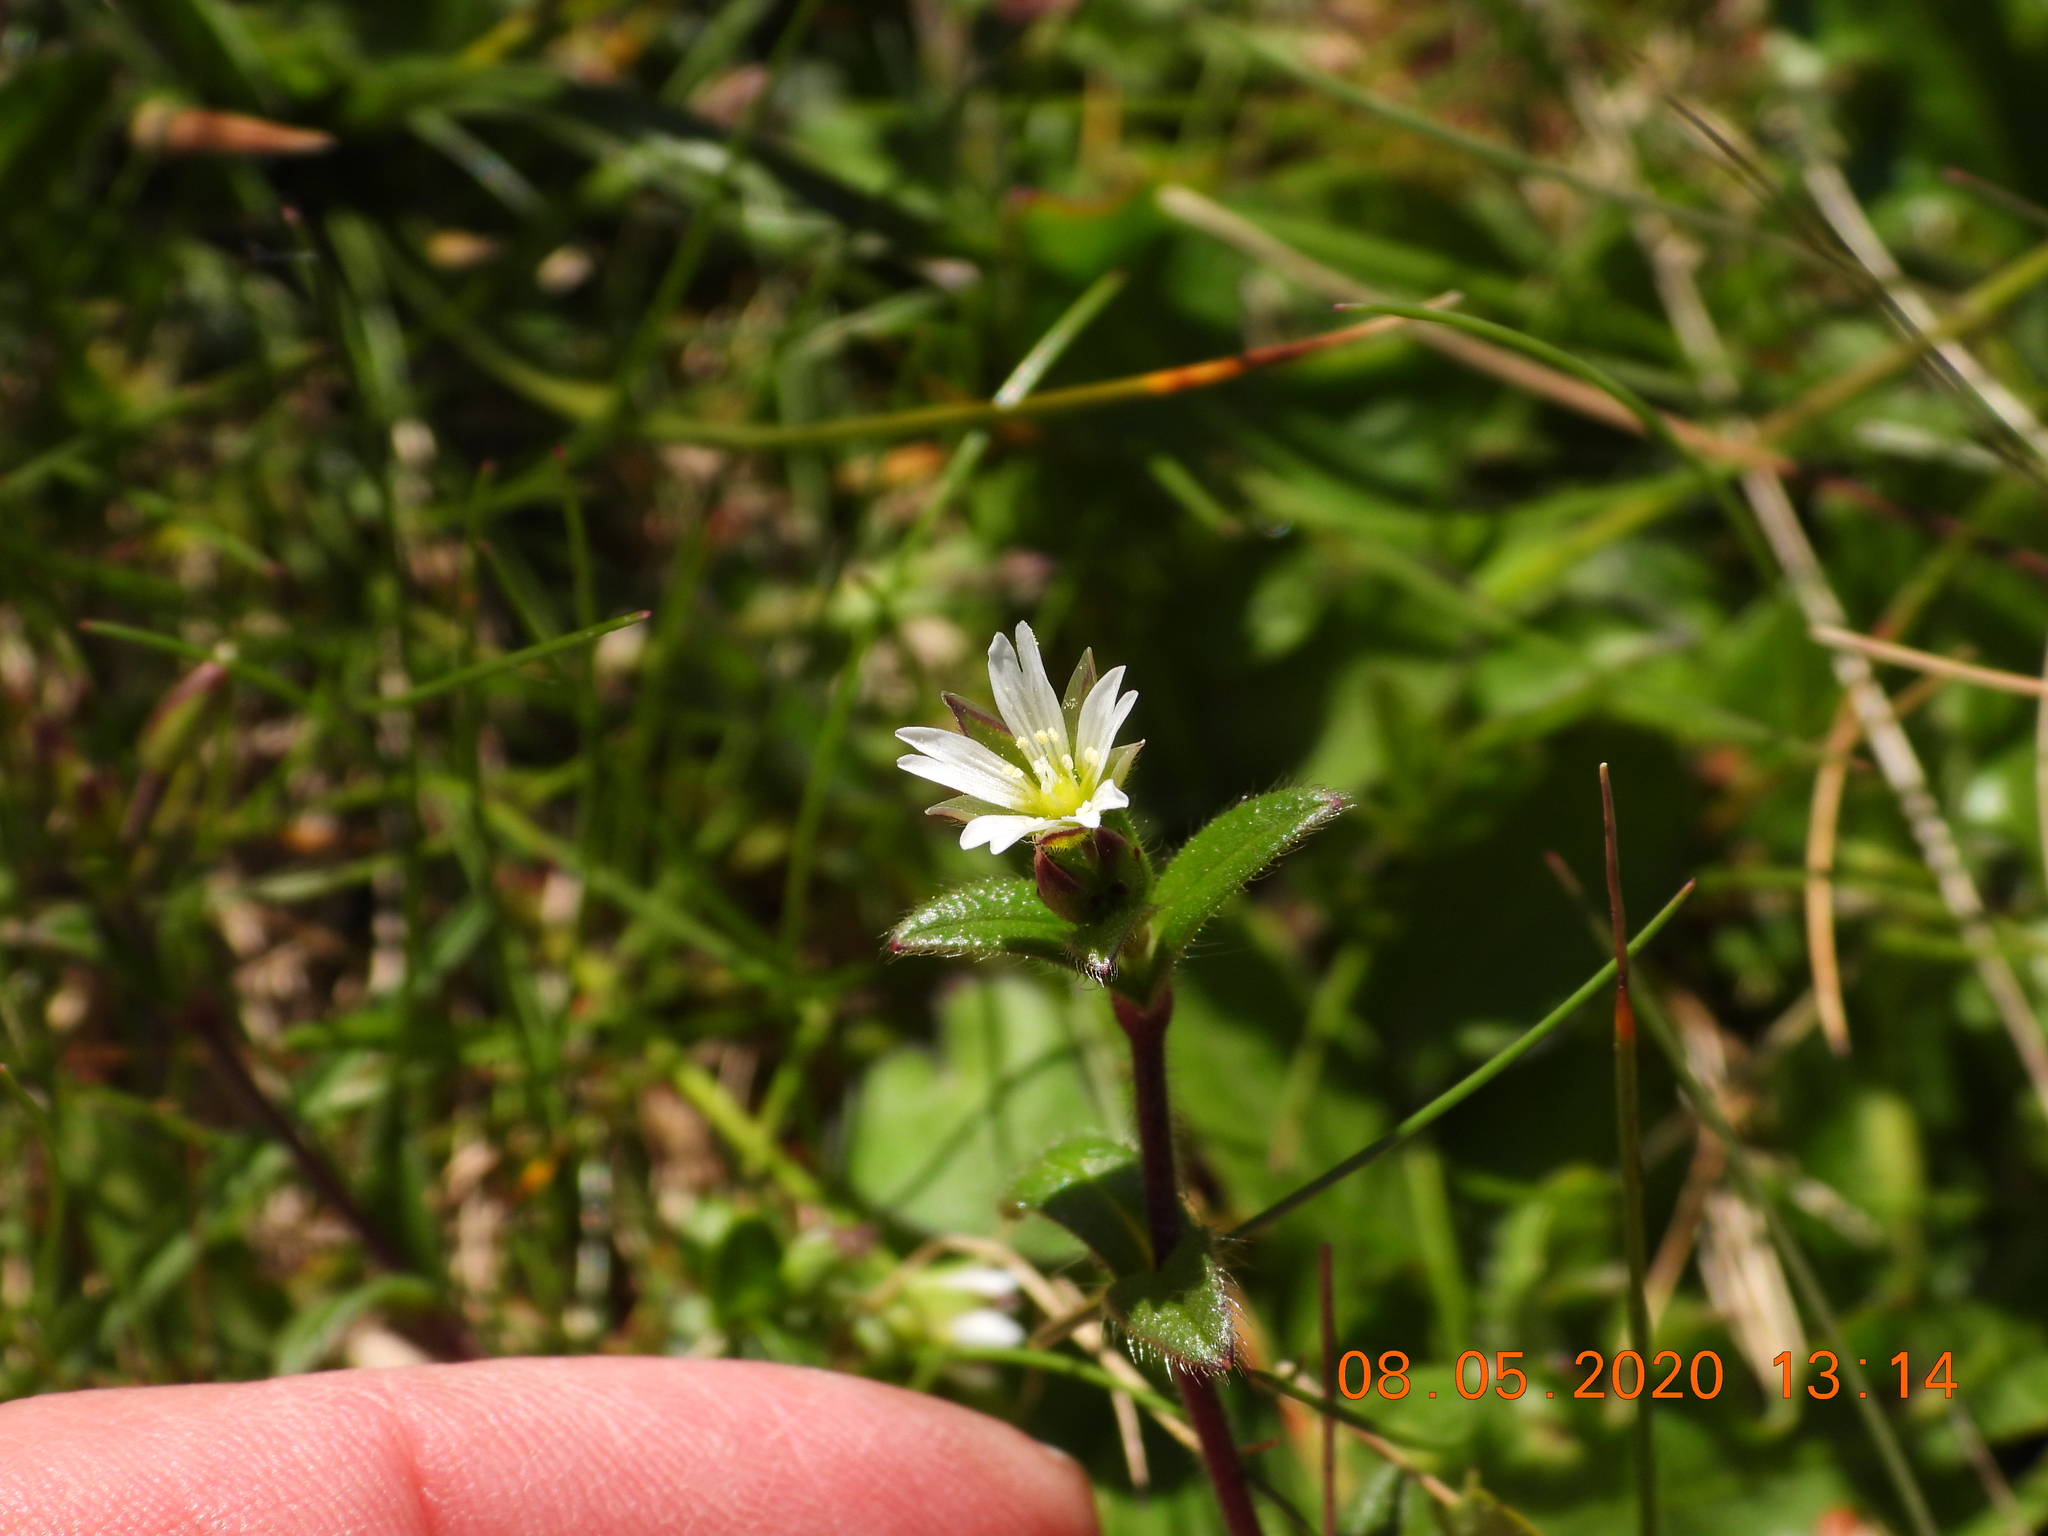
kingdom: Plantae
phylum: Tracheophyta
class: Magnoliopsida
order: Caryophyllales
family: Caryophyllaceae
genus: Cerastium
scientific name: Cerastium fontanum
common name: Common mouse-ear
